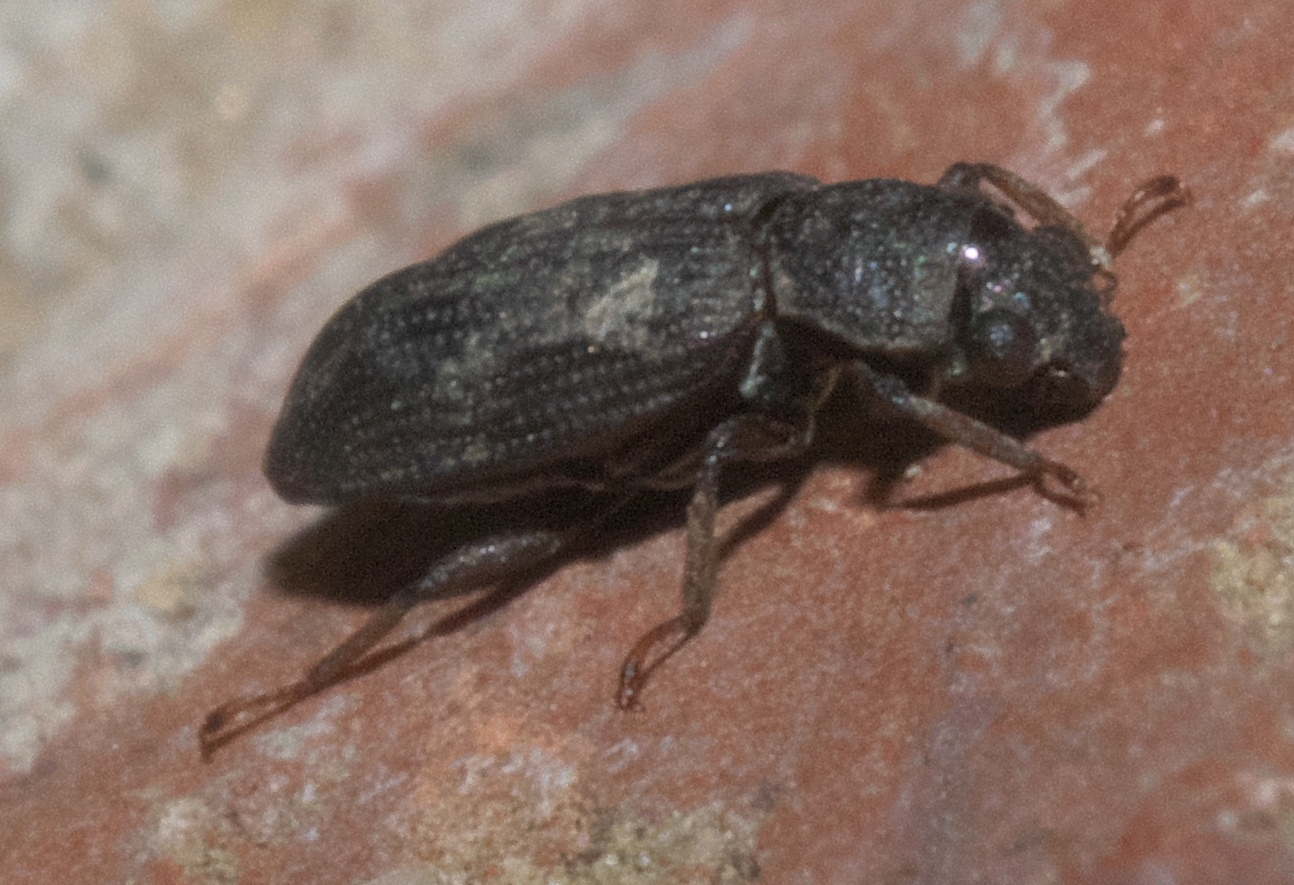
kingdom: Animalia
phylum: Arthropoda
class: Insecta
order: Coleoptera
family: Hydrochidae
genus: Hydrochus
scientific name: Hydrochus
